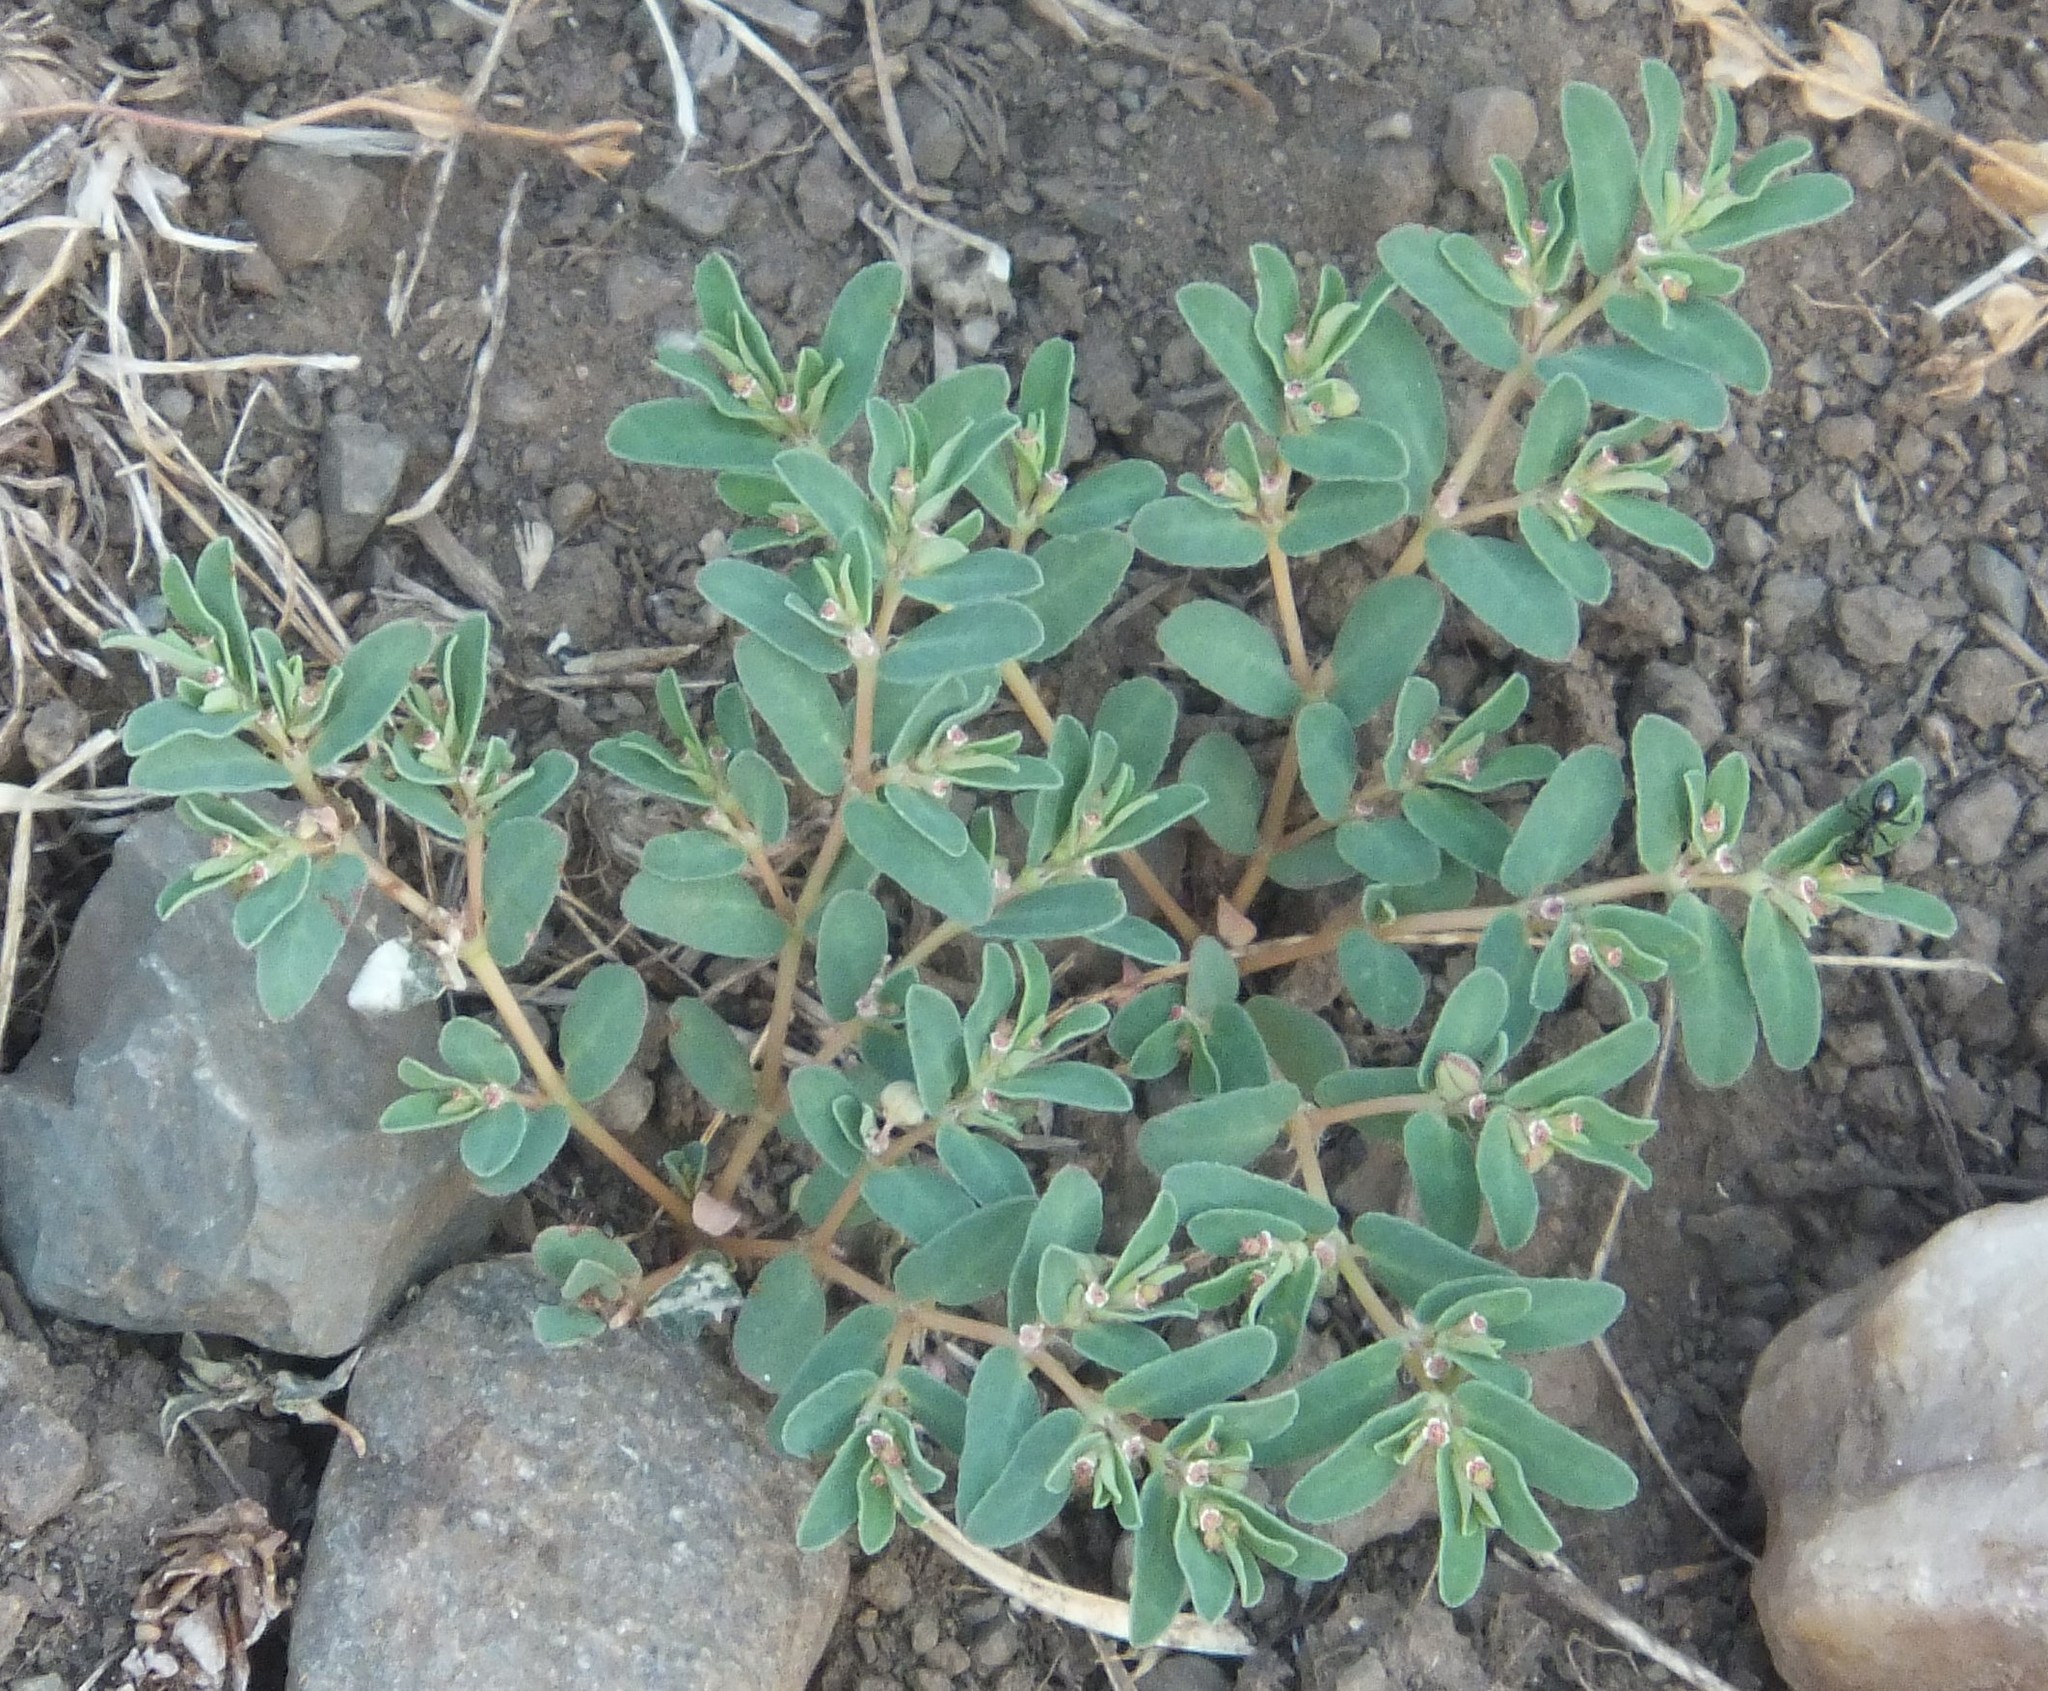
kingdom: Plantae
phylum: Tracheophyta
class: Magnoliopsida
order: Malpighiales
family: Euphorbiaceae
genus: Euphorbia
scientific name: Euphorbia glyptosperma
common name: Corrugate-seeded spurge
